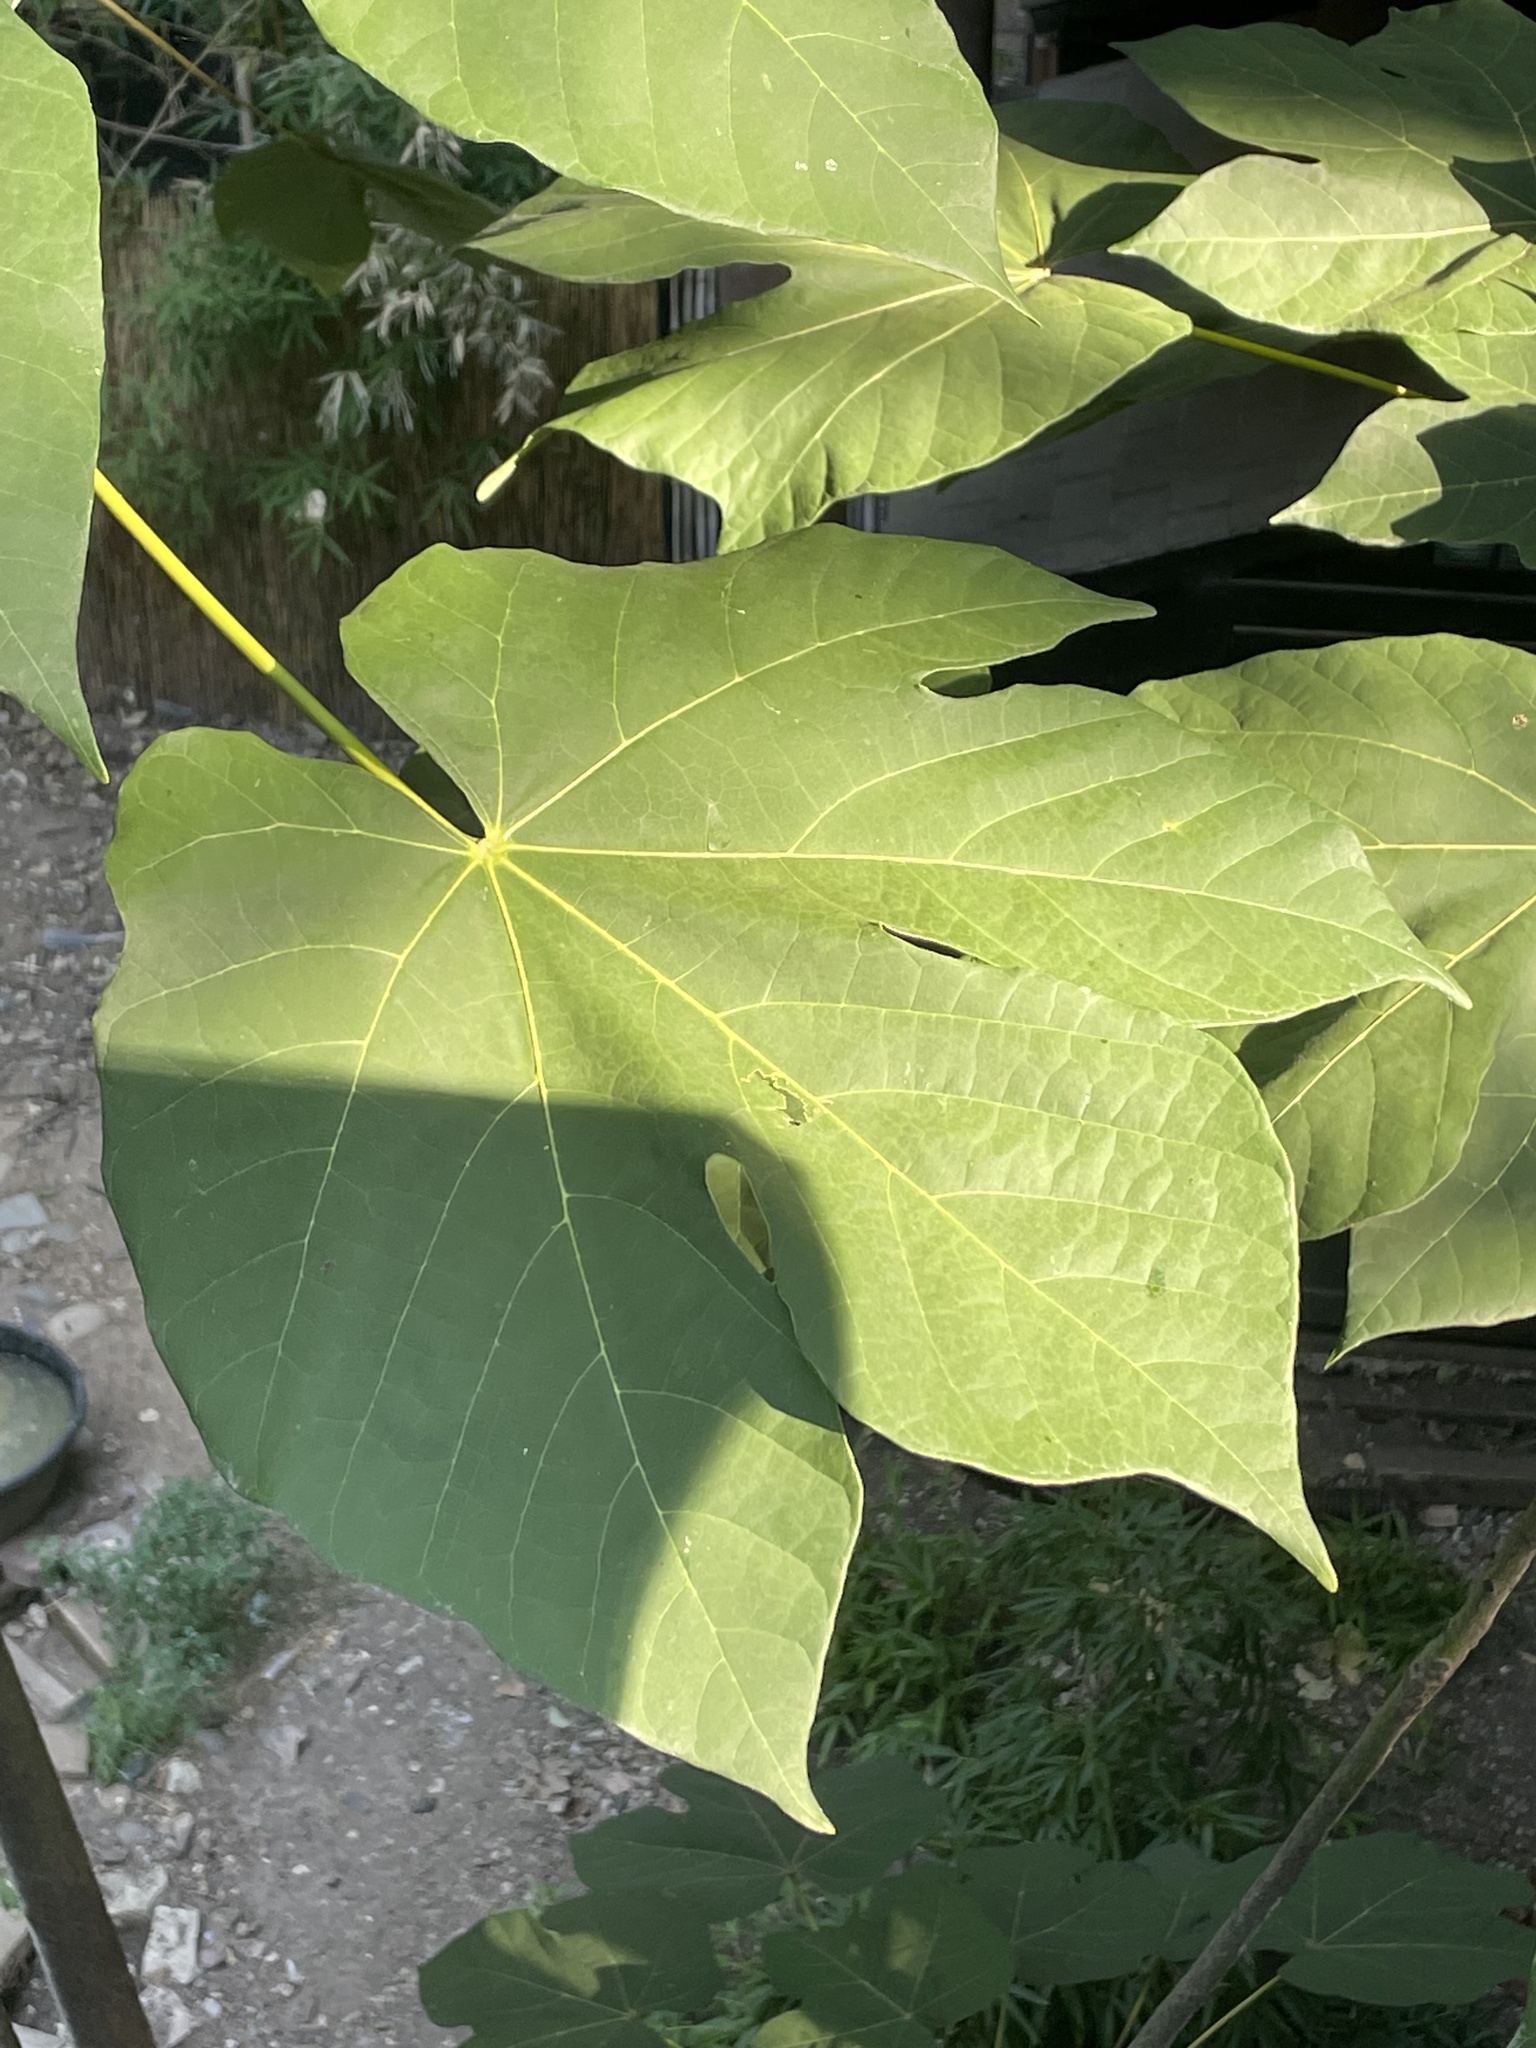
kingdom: Plantae
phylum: Tracheophyta
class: Magnoliopsida
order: Malvales
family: Malvaceae
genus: Firmiana
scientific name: Firmiana simplex
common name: Chinese parasoltree
